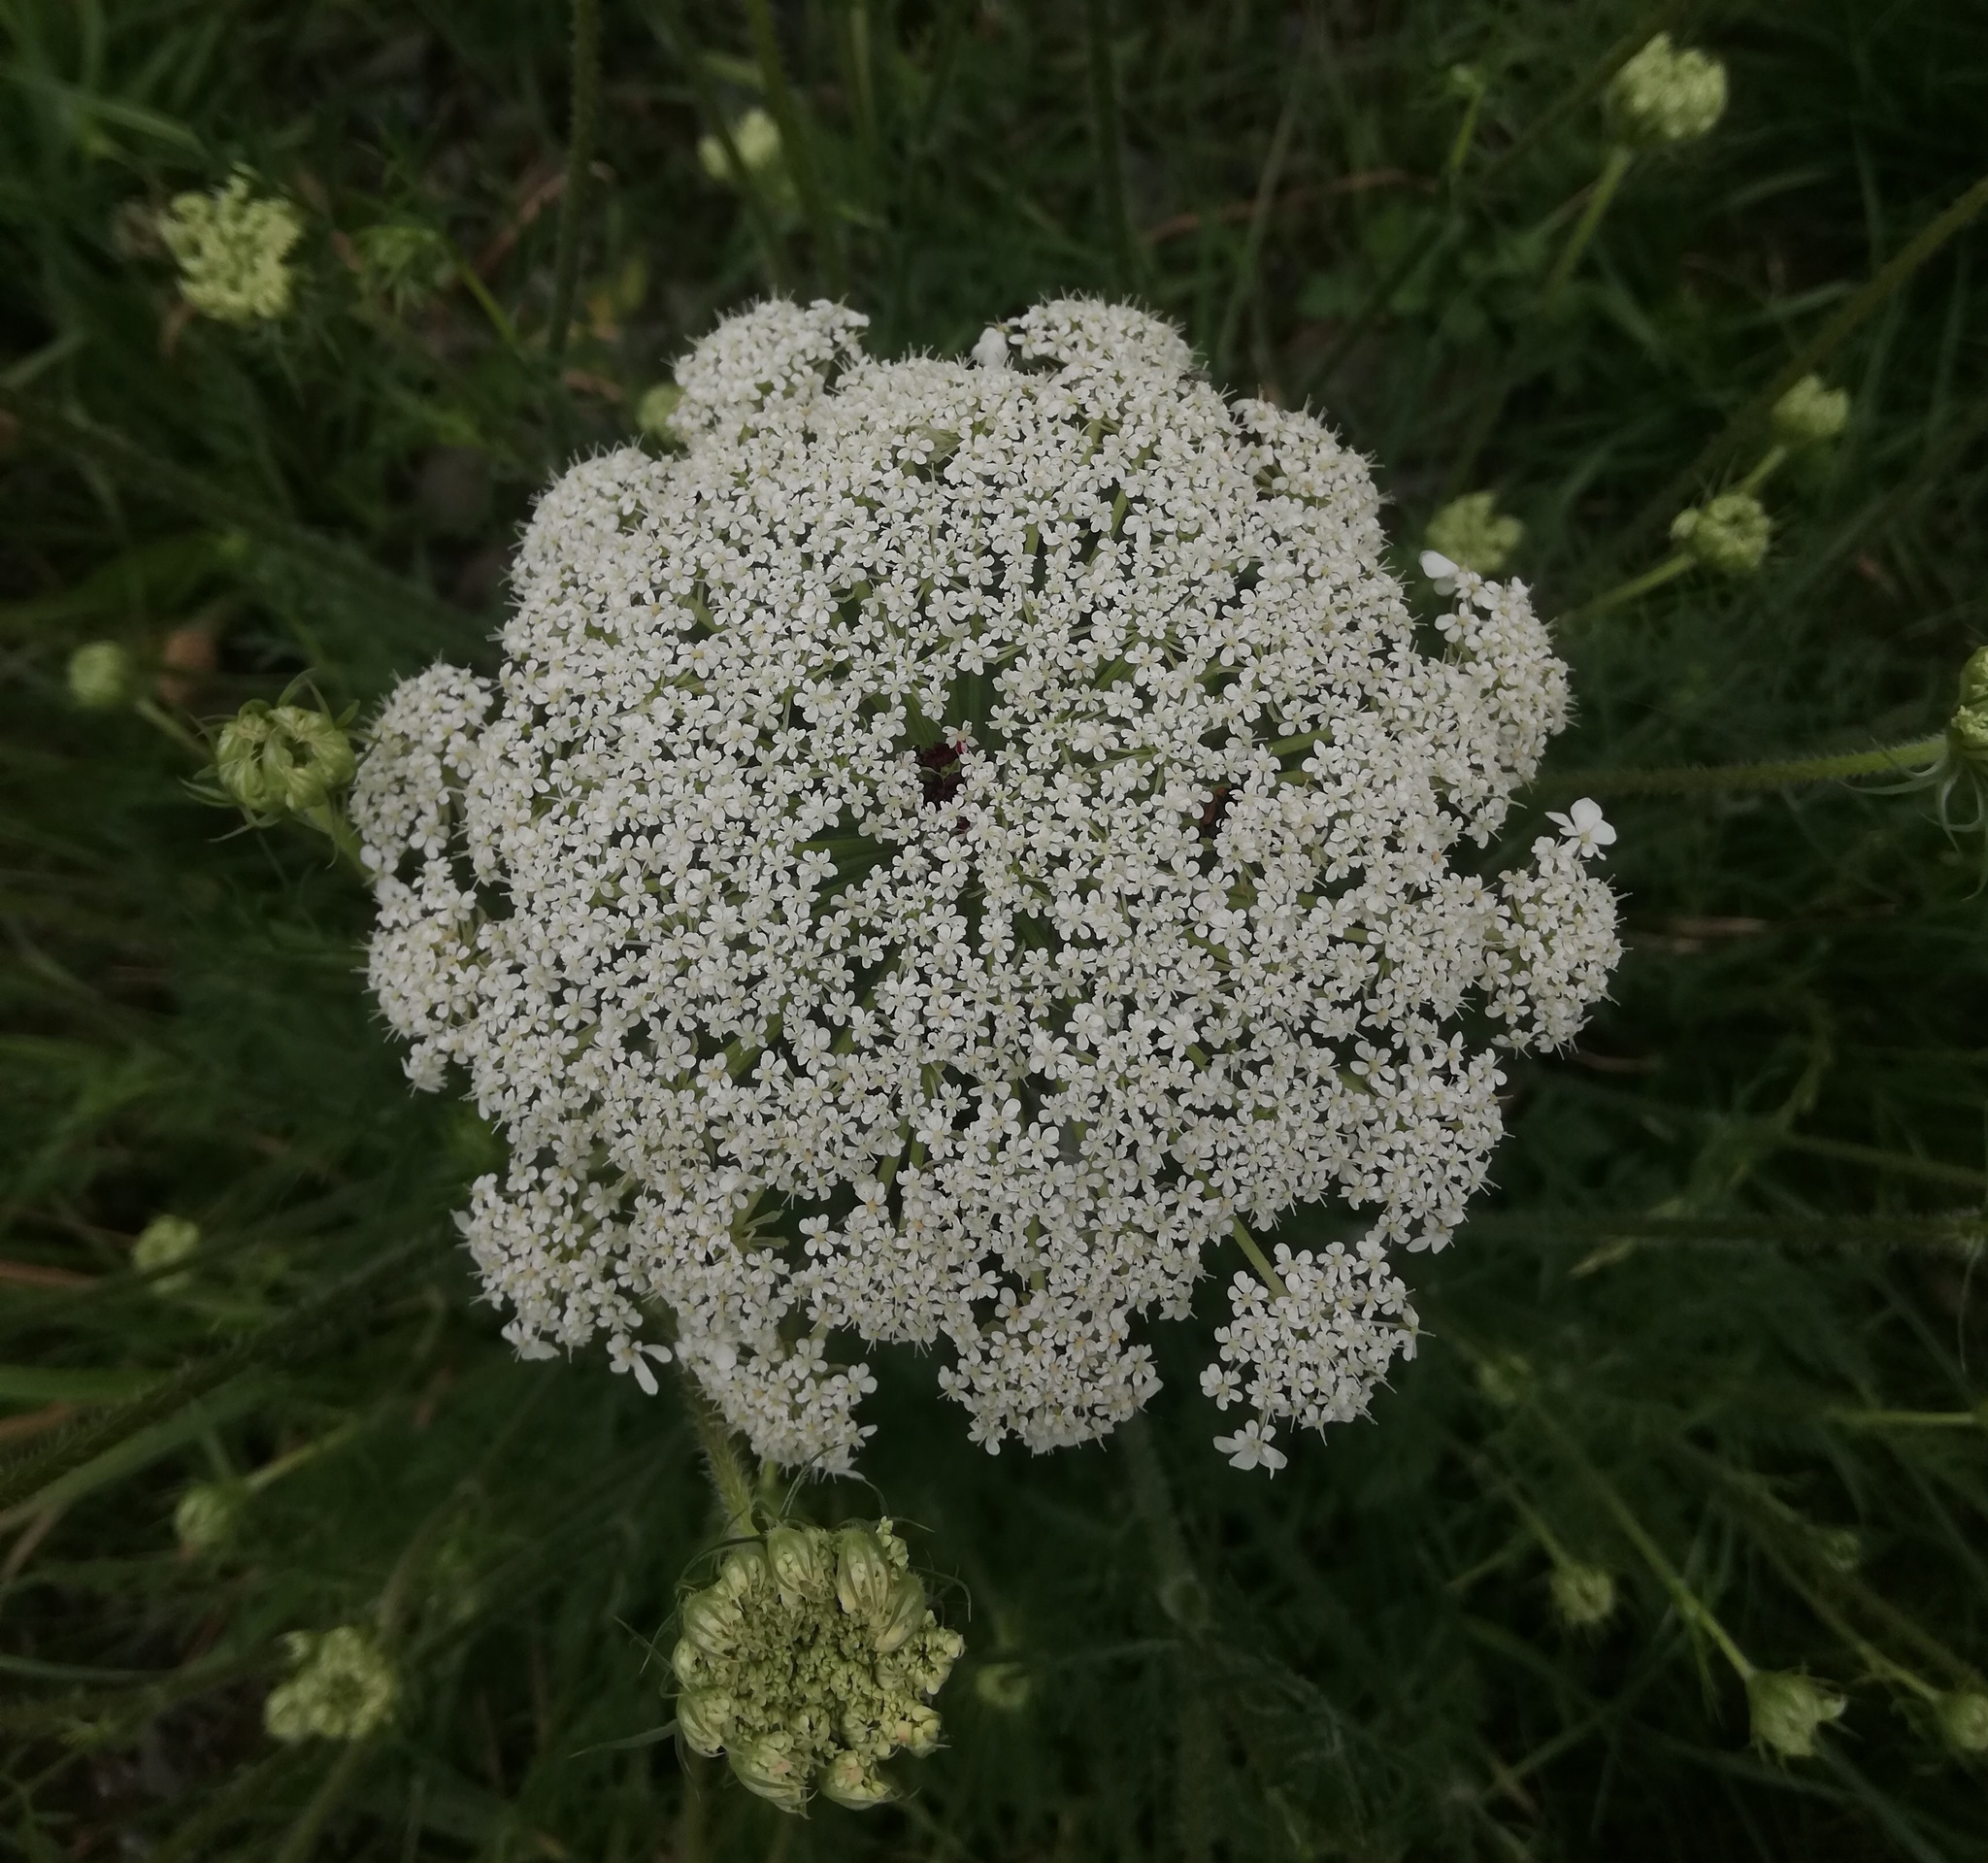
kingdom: Plantae
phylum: Tracheophyta
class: Magnoliopsida
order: Apiales
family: Apiaceae
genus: Daucus
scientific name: Daucus carota
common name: Wild carrot
